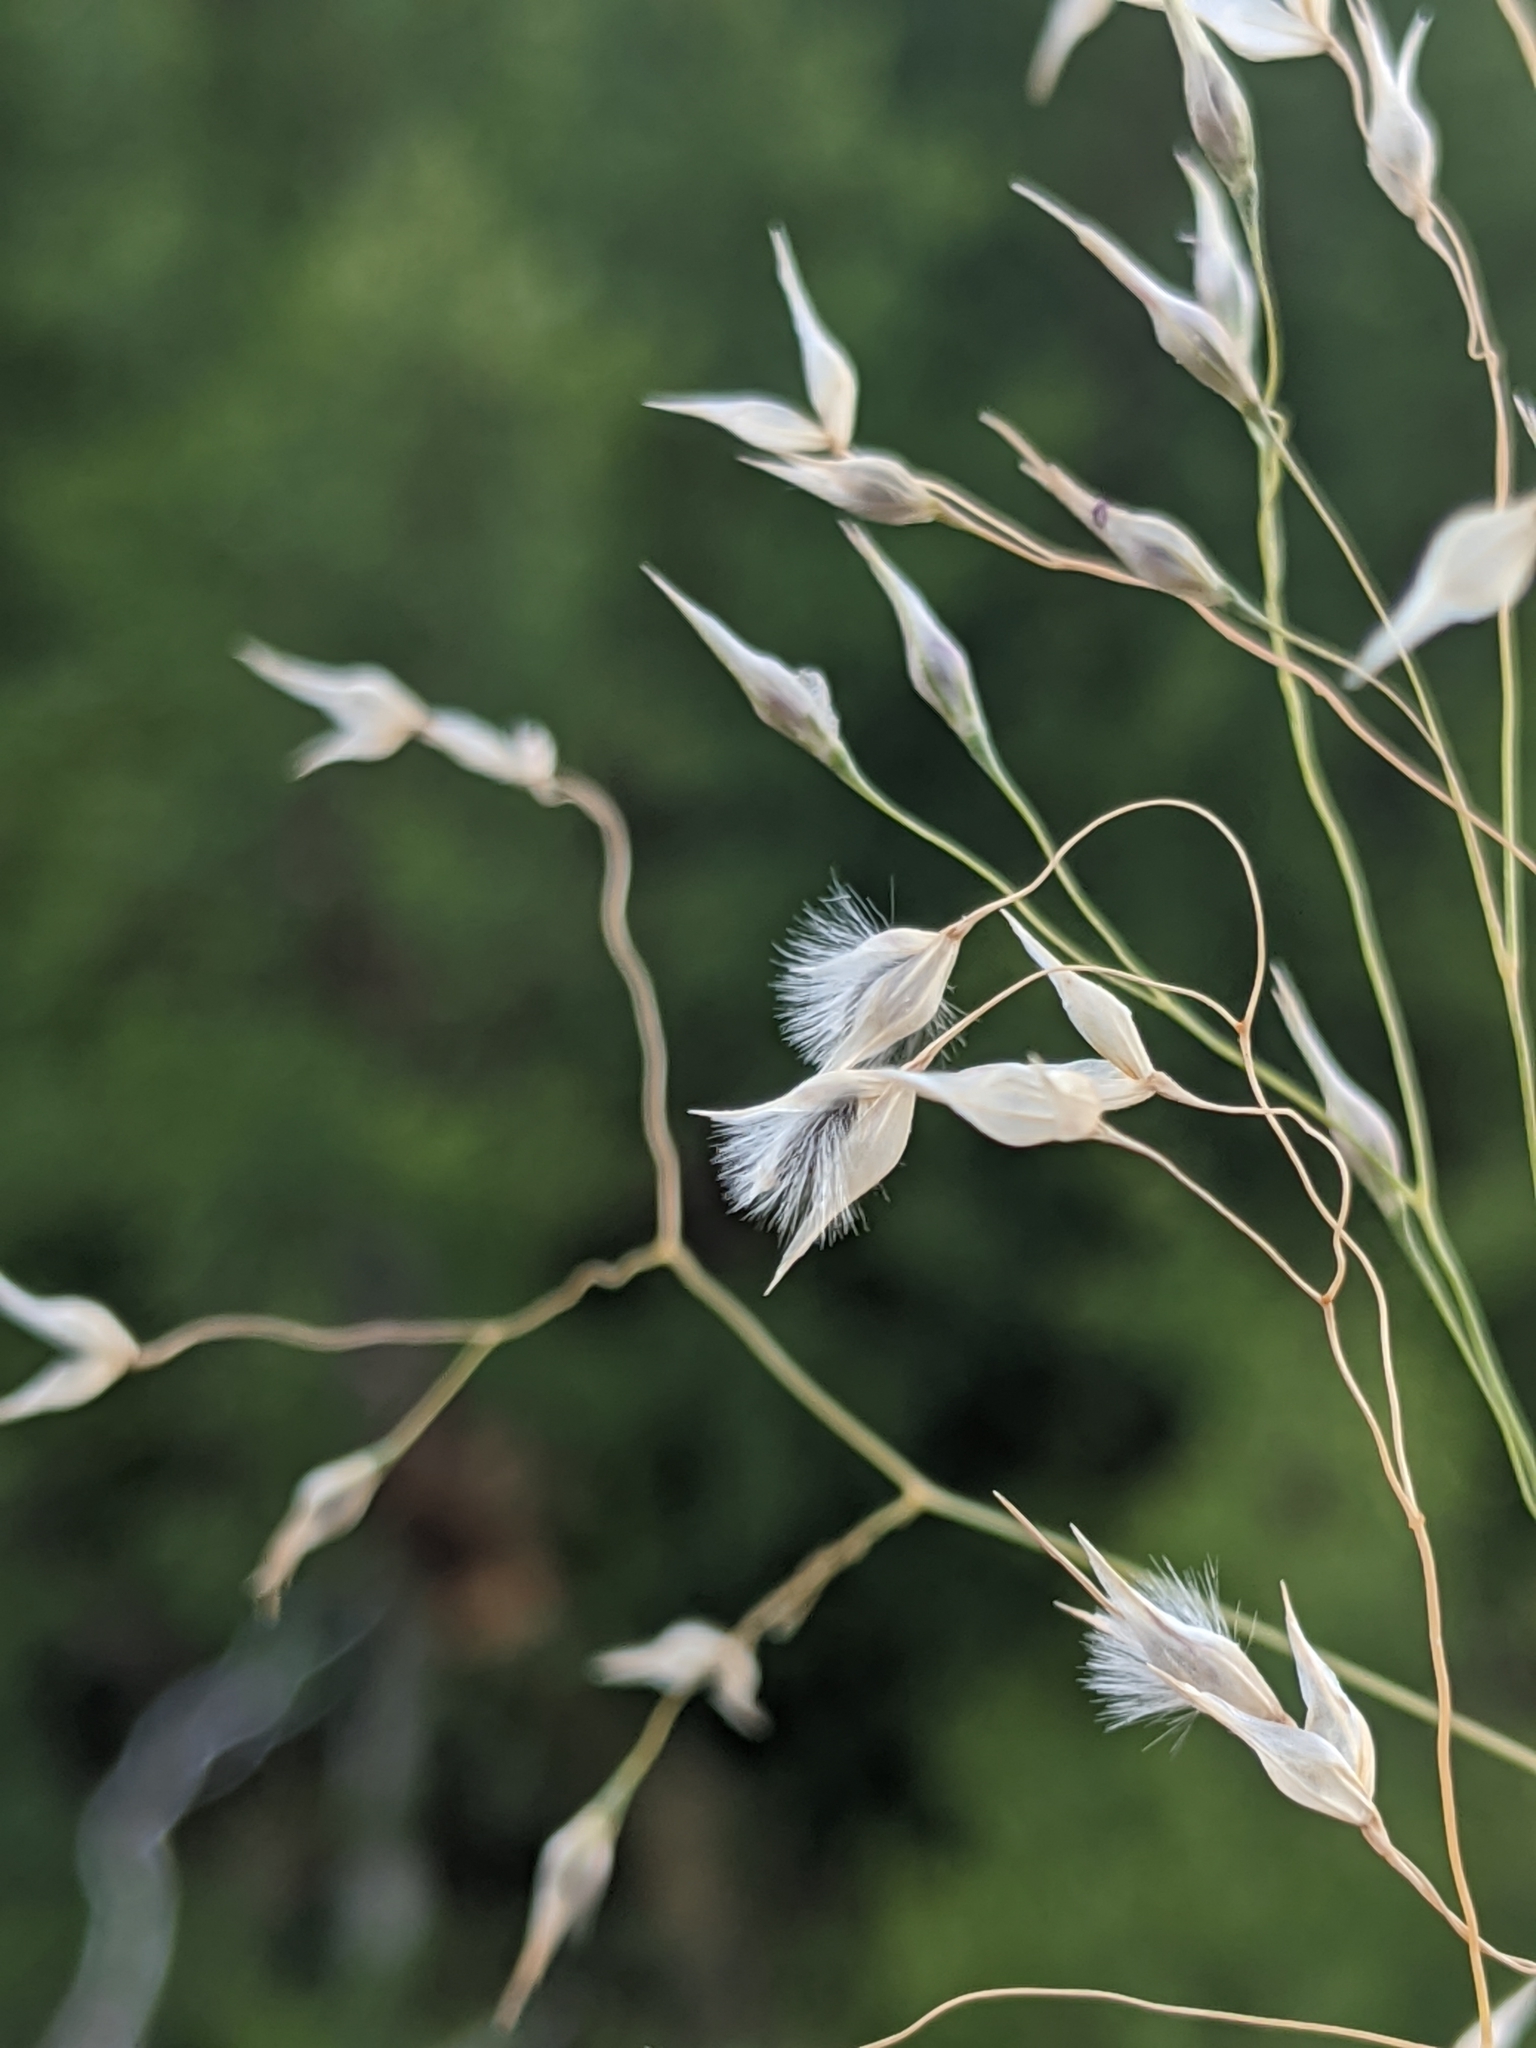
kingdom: Plantae
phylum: Tracheophyta
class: Liliopsida
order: Poales
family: Poaceae
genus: Eriocoma
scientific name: Eriocoma hymenoides
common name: Indian mountain ricegrass
